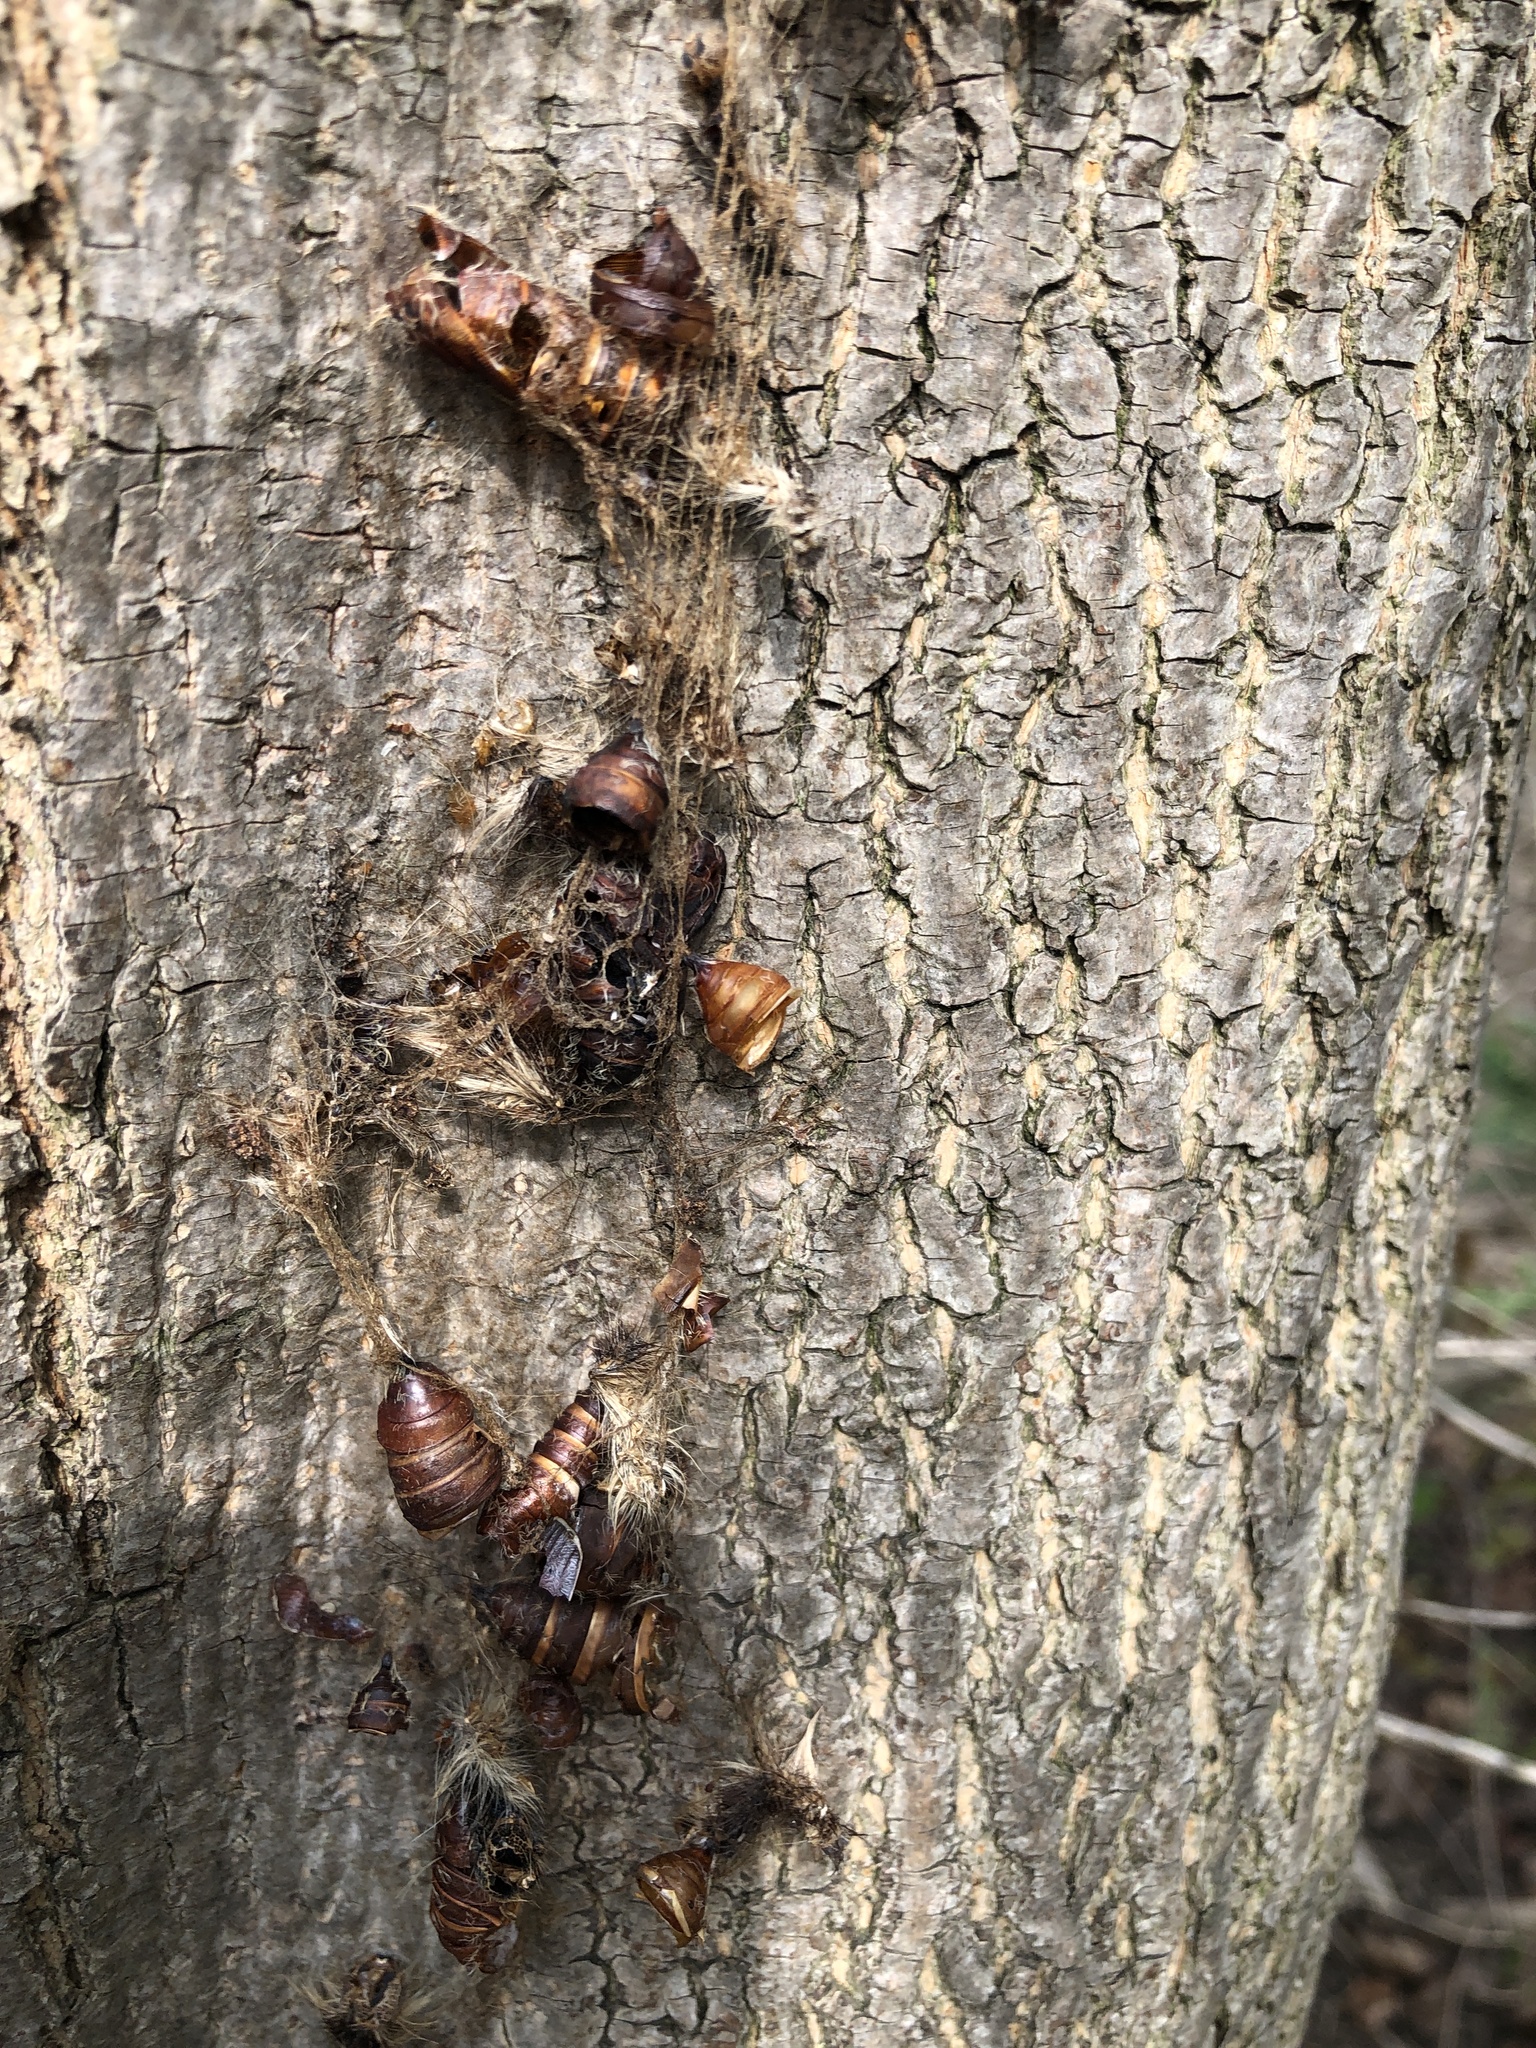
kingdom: Animalia
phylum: Arthropoda
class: Insecta
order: Lepidoptera
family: Erebidae
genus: Lymantria
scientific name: Lymantria dispar
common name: Gypsy moth
